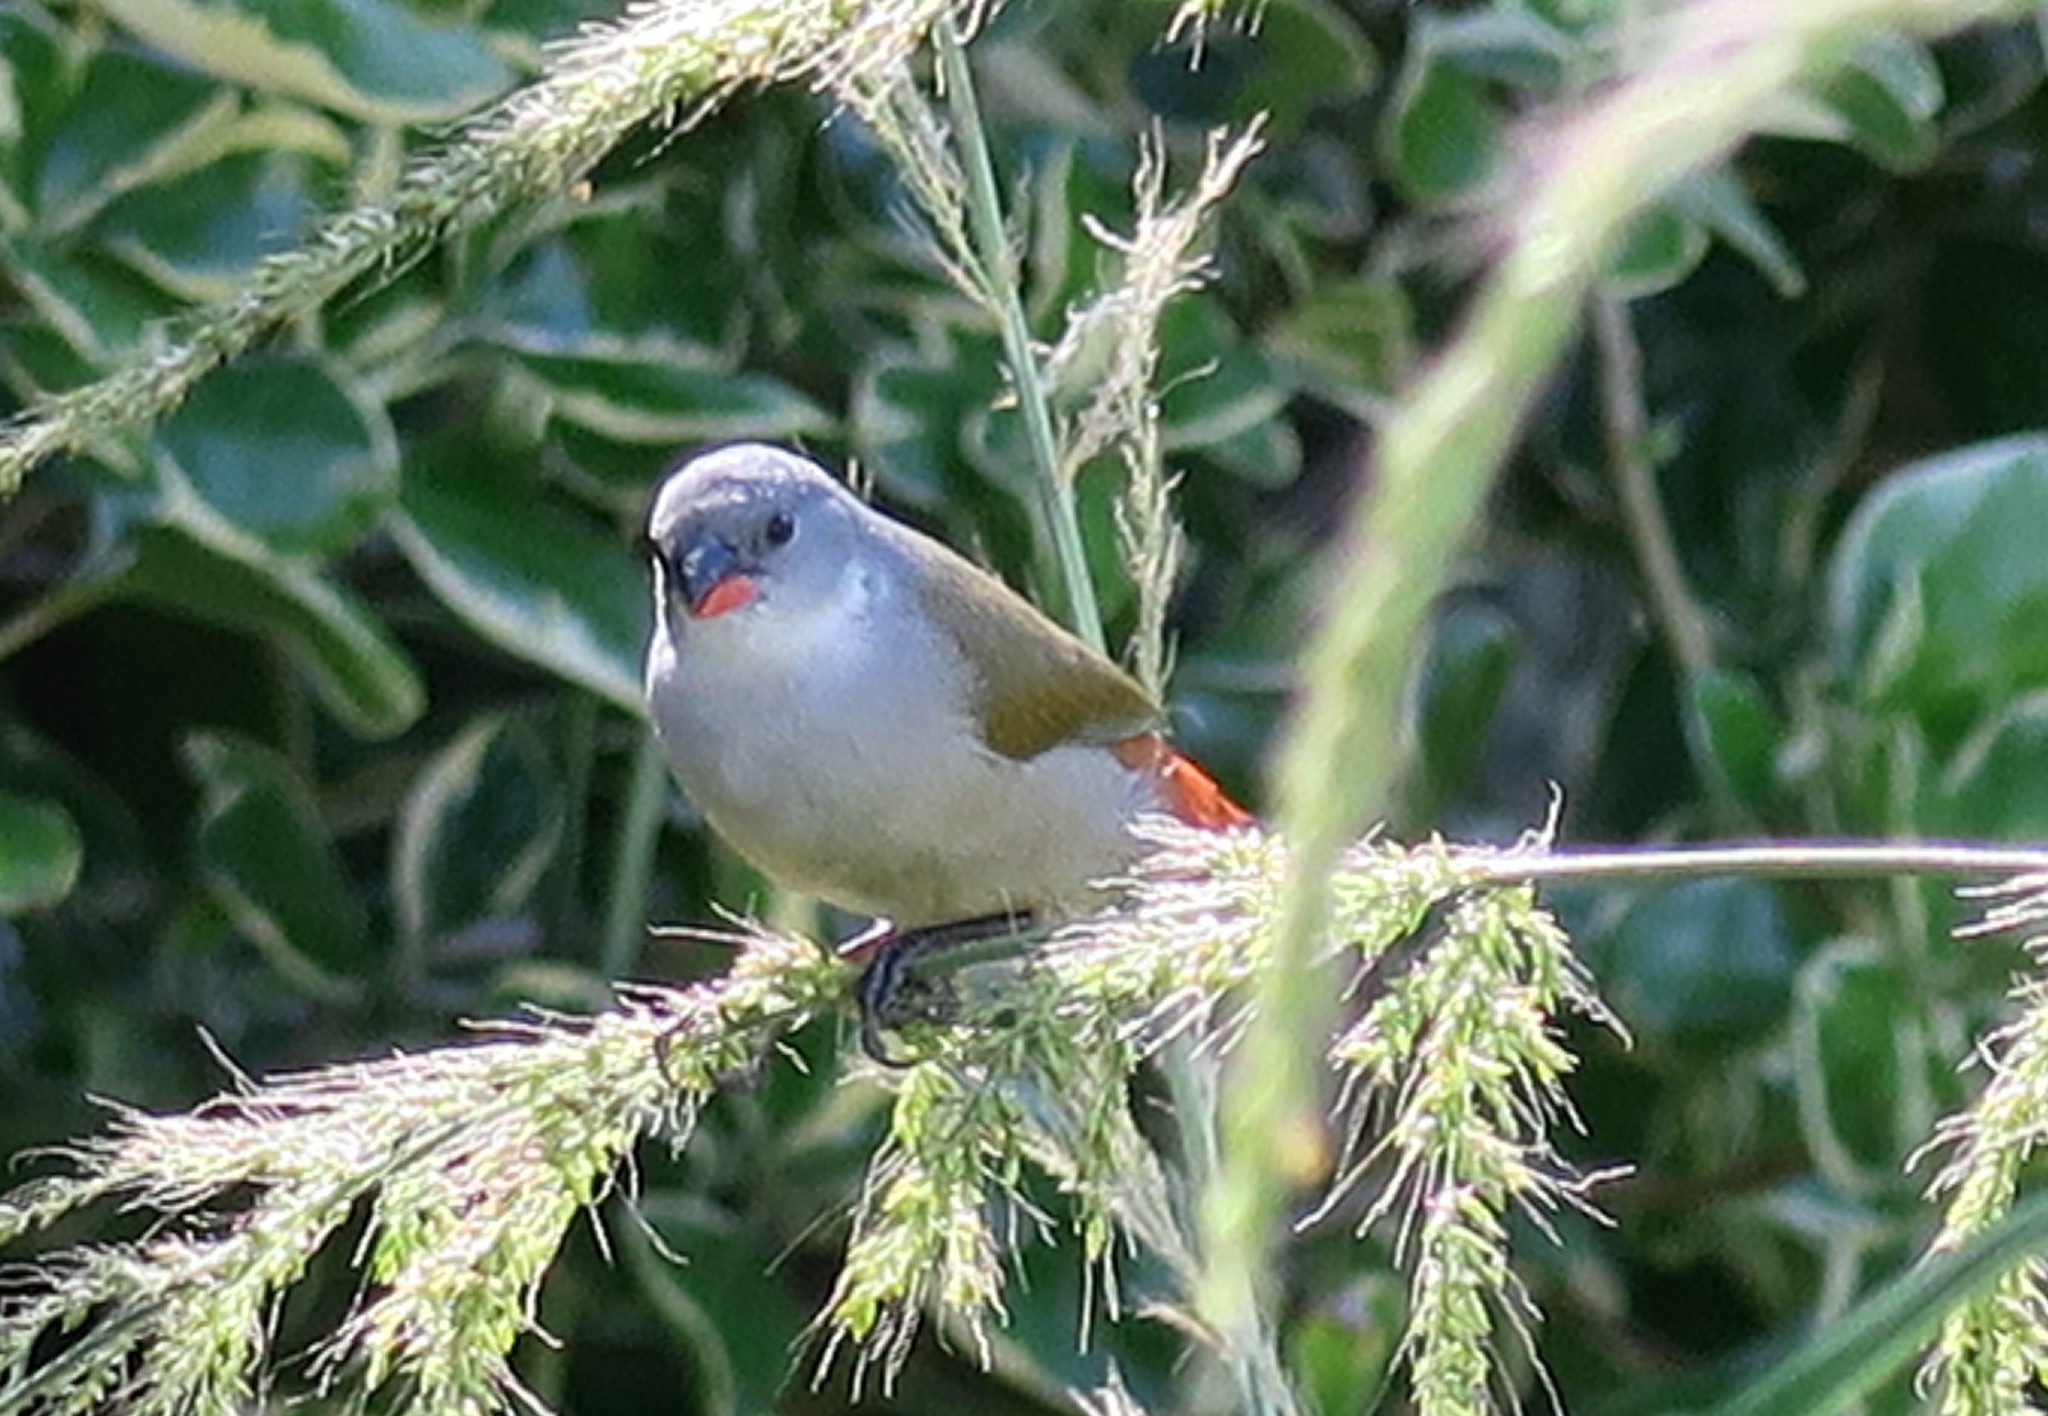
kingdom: Animalia
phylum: Chordata
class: Aves
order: Passeriformes
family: Estrildidae
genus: Coccopygia
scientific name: Coccopygia melanotis
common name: Swee waxbill
